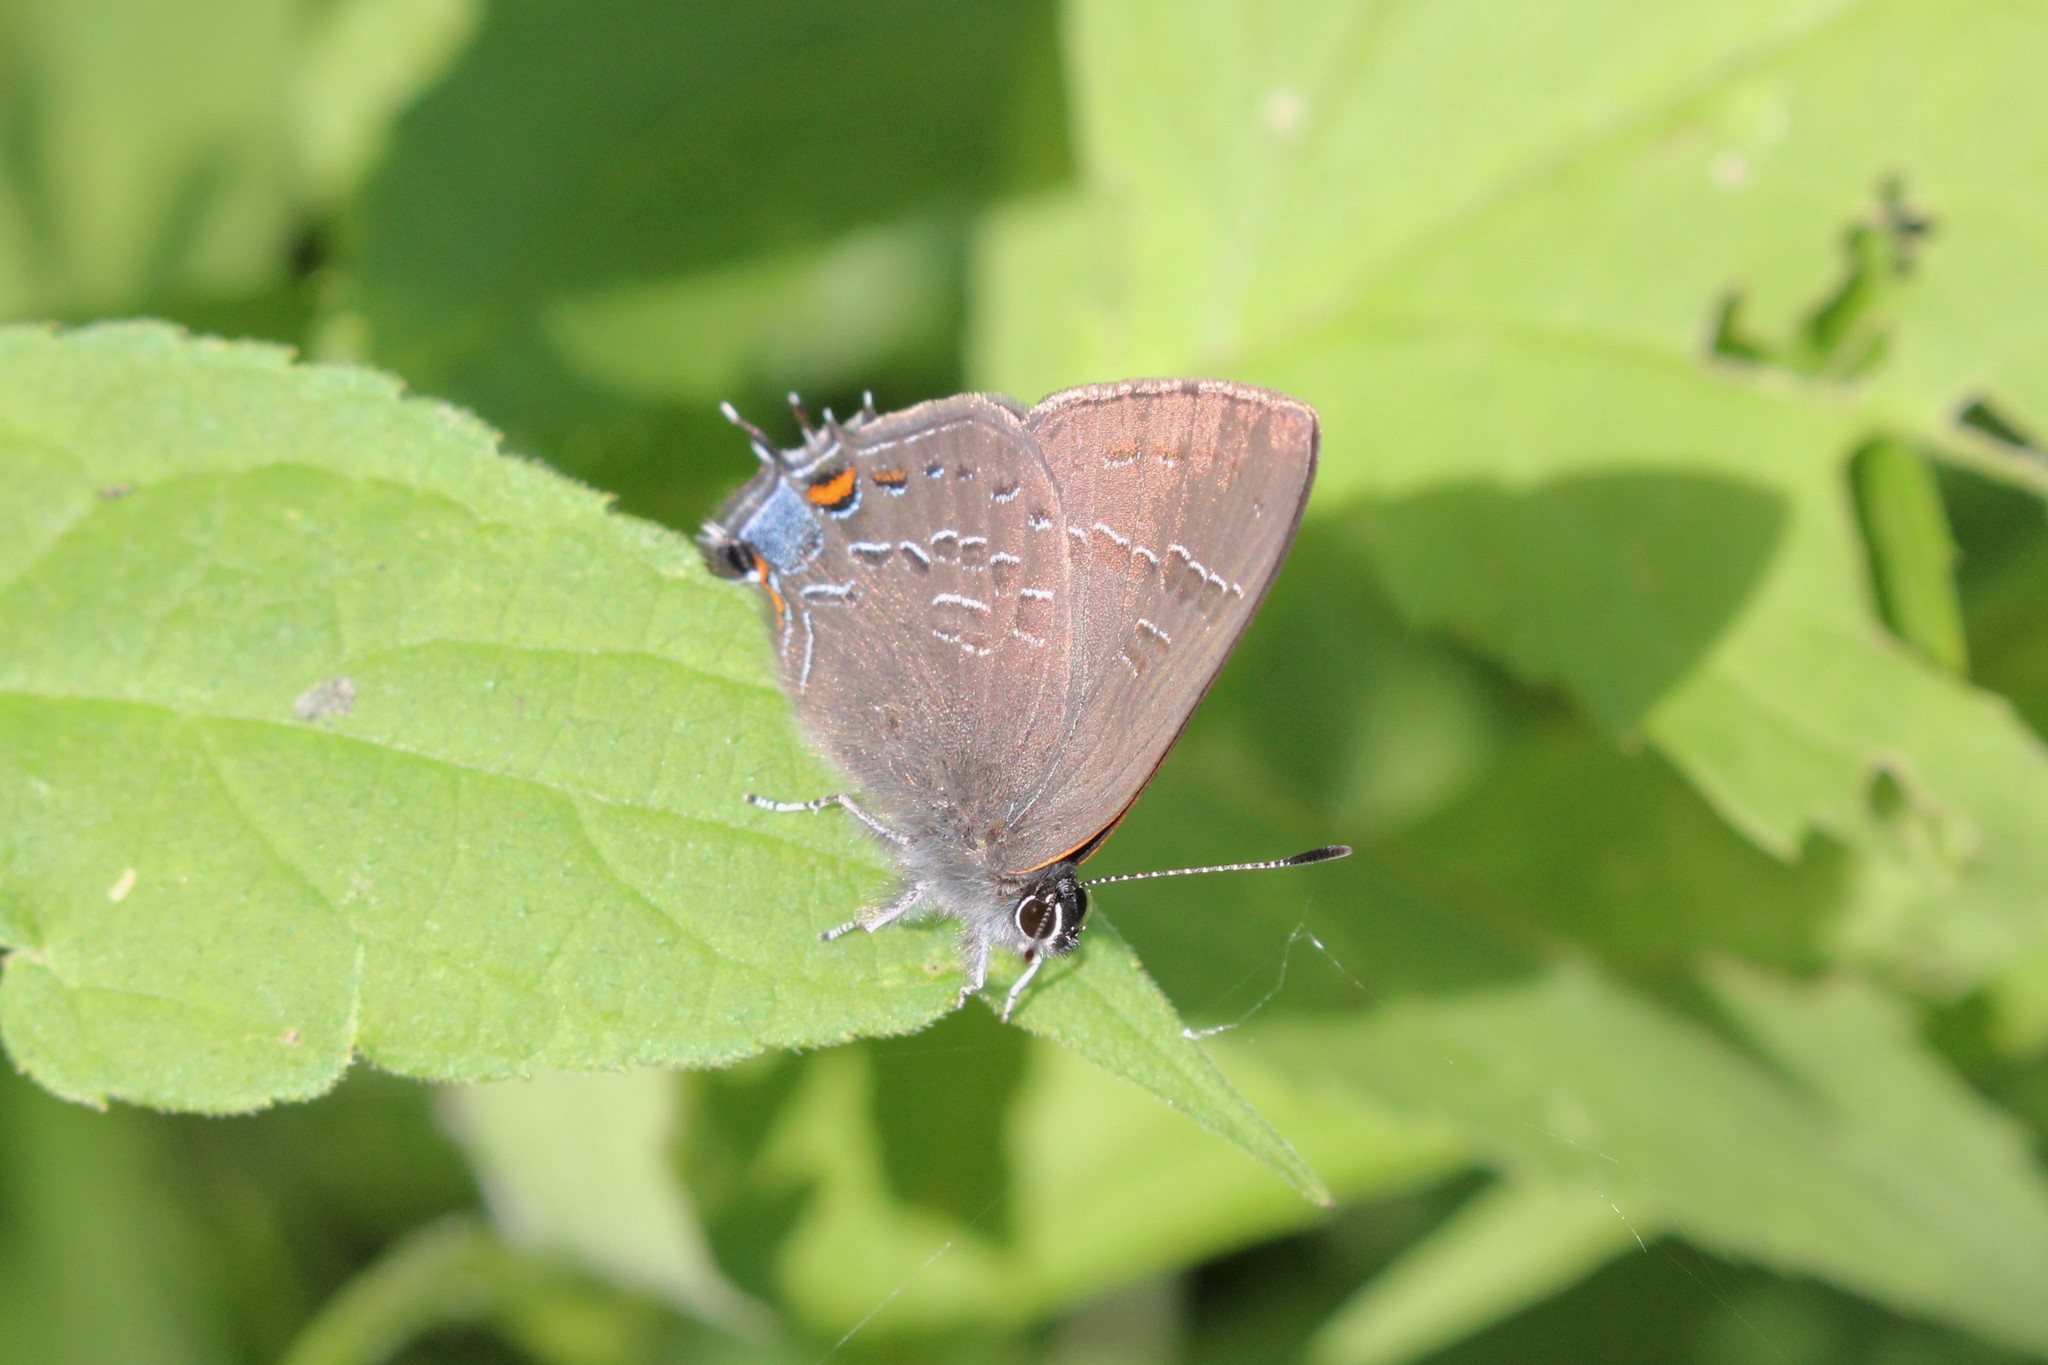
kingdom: Animalia
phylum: Arthropoda
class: Insecta
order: Lepidoptera
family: Lycaenidae
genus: Satyrium
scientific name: Satyrium calanus
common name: Banded hairstreak
